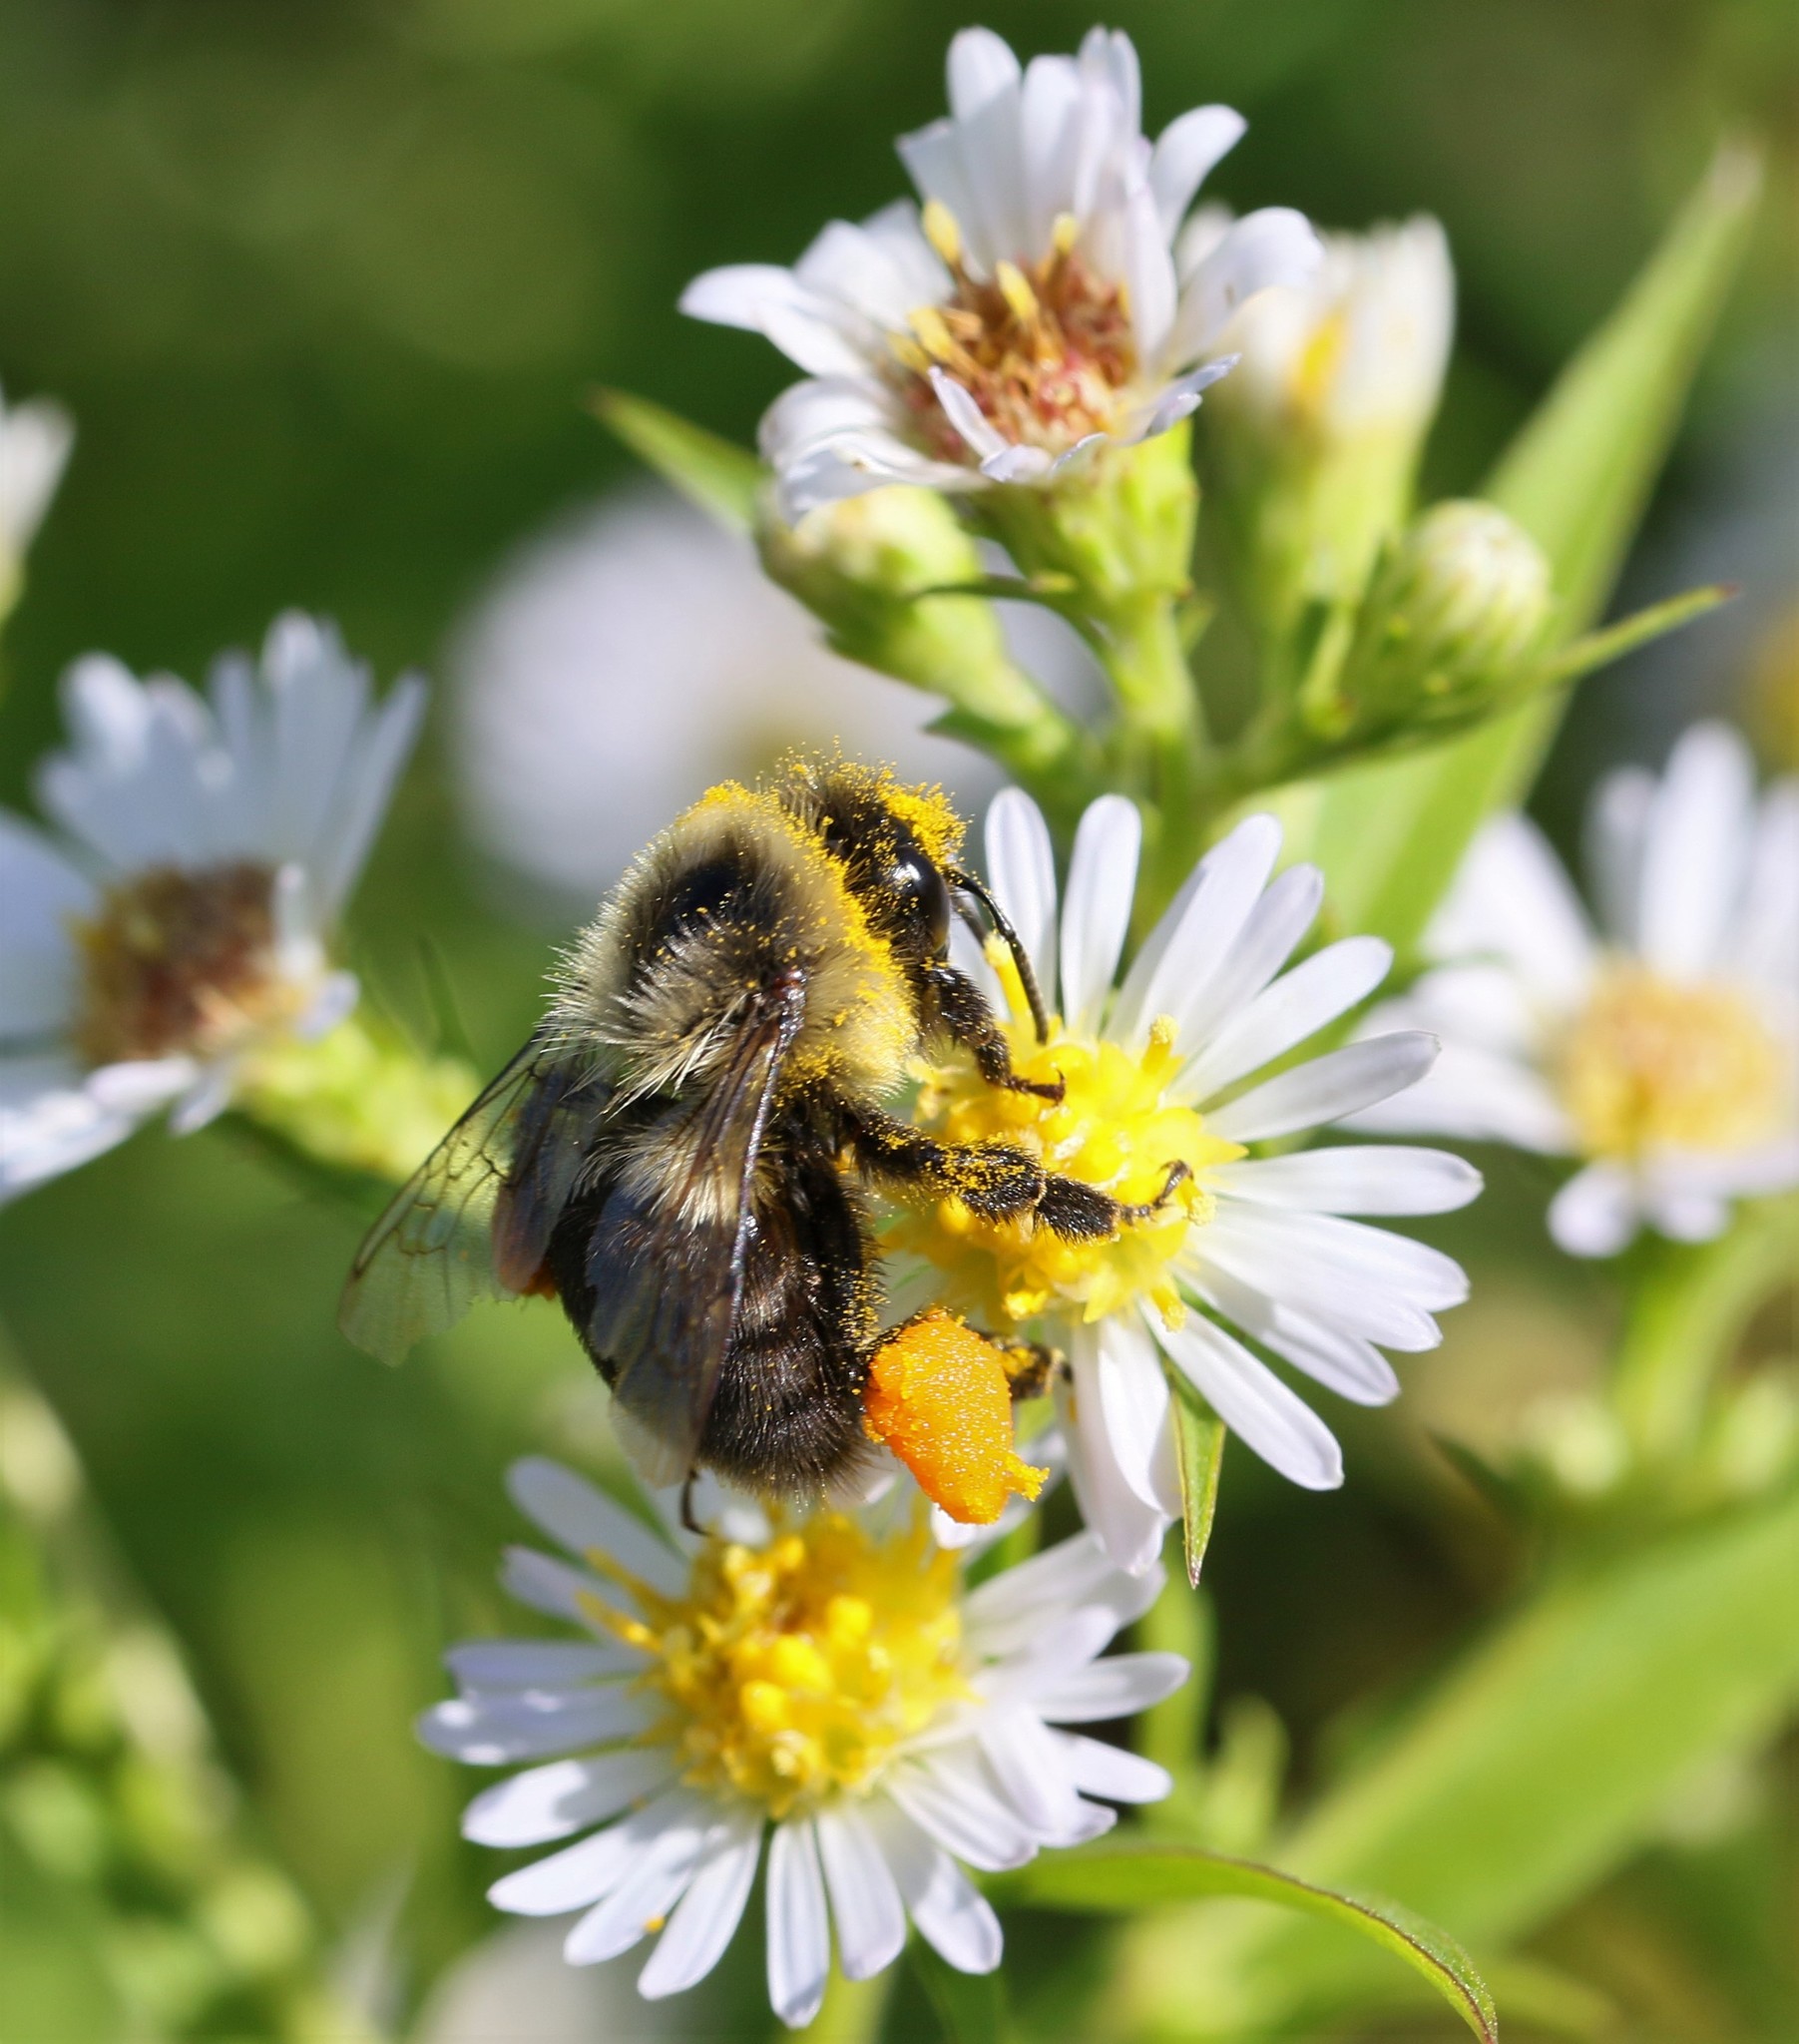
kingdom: Animalia
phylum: Arthropoda
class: Insecta
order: Hymenoptera
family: Apidae
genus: Bombus
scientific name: Bombus impatiens
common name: Common eastern bumble bee
